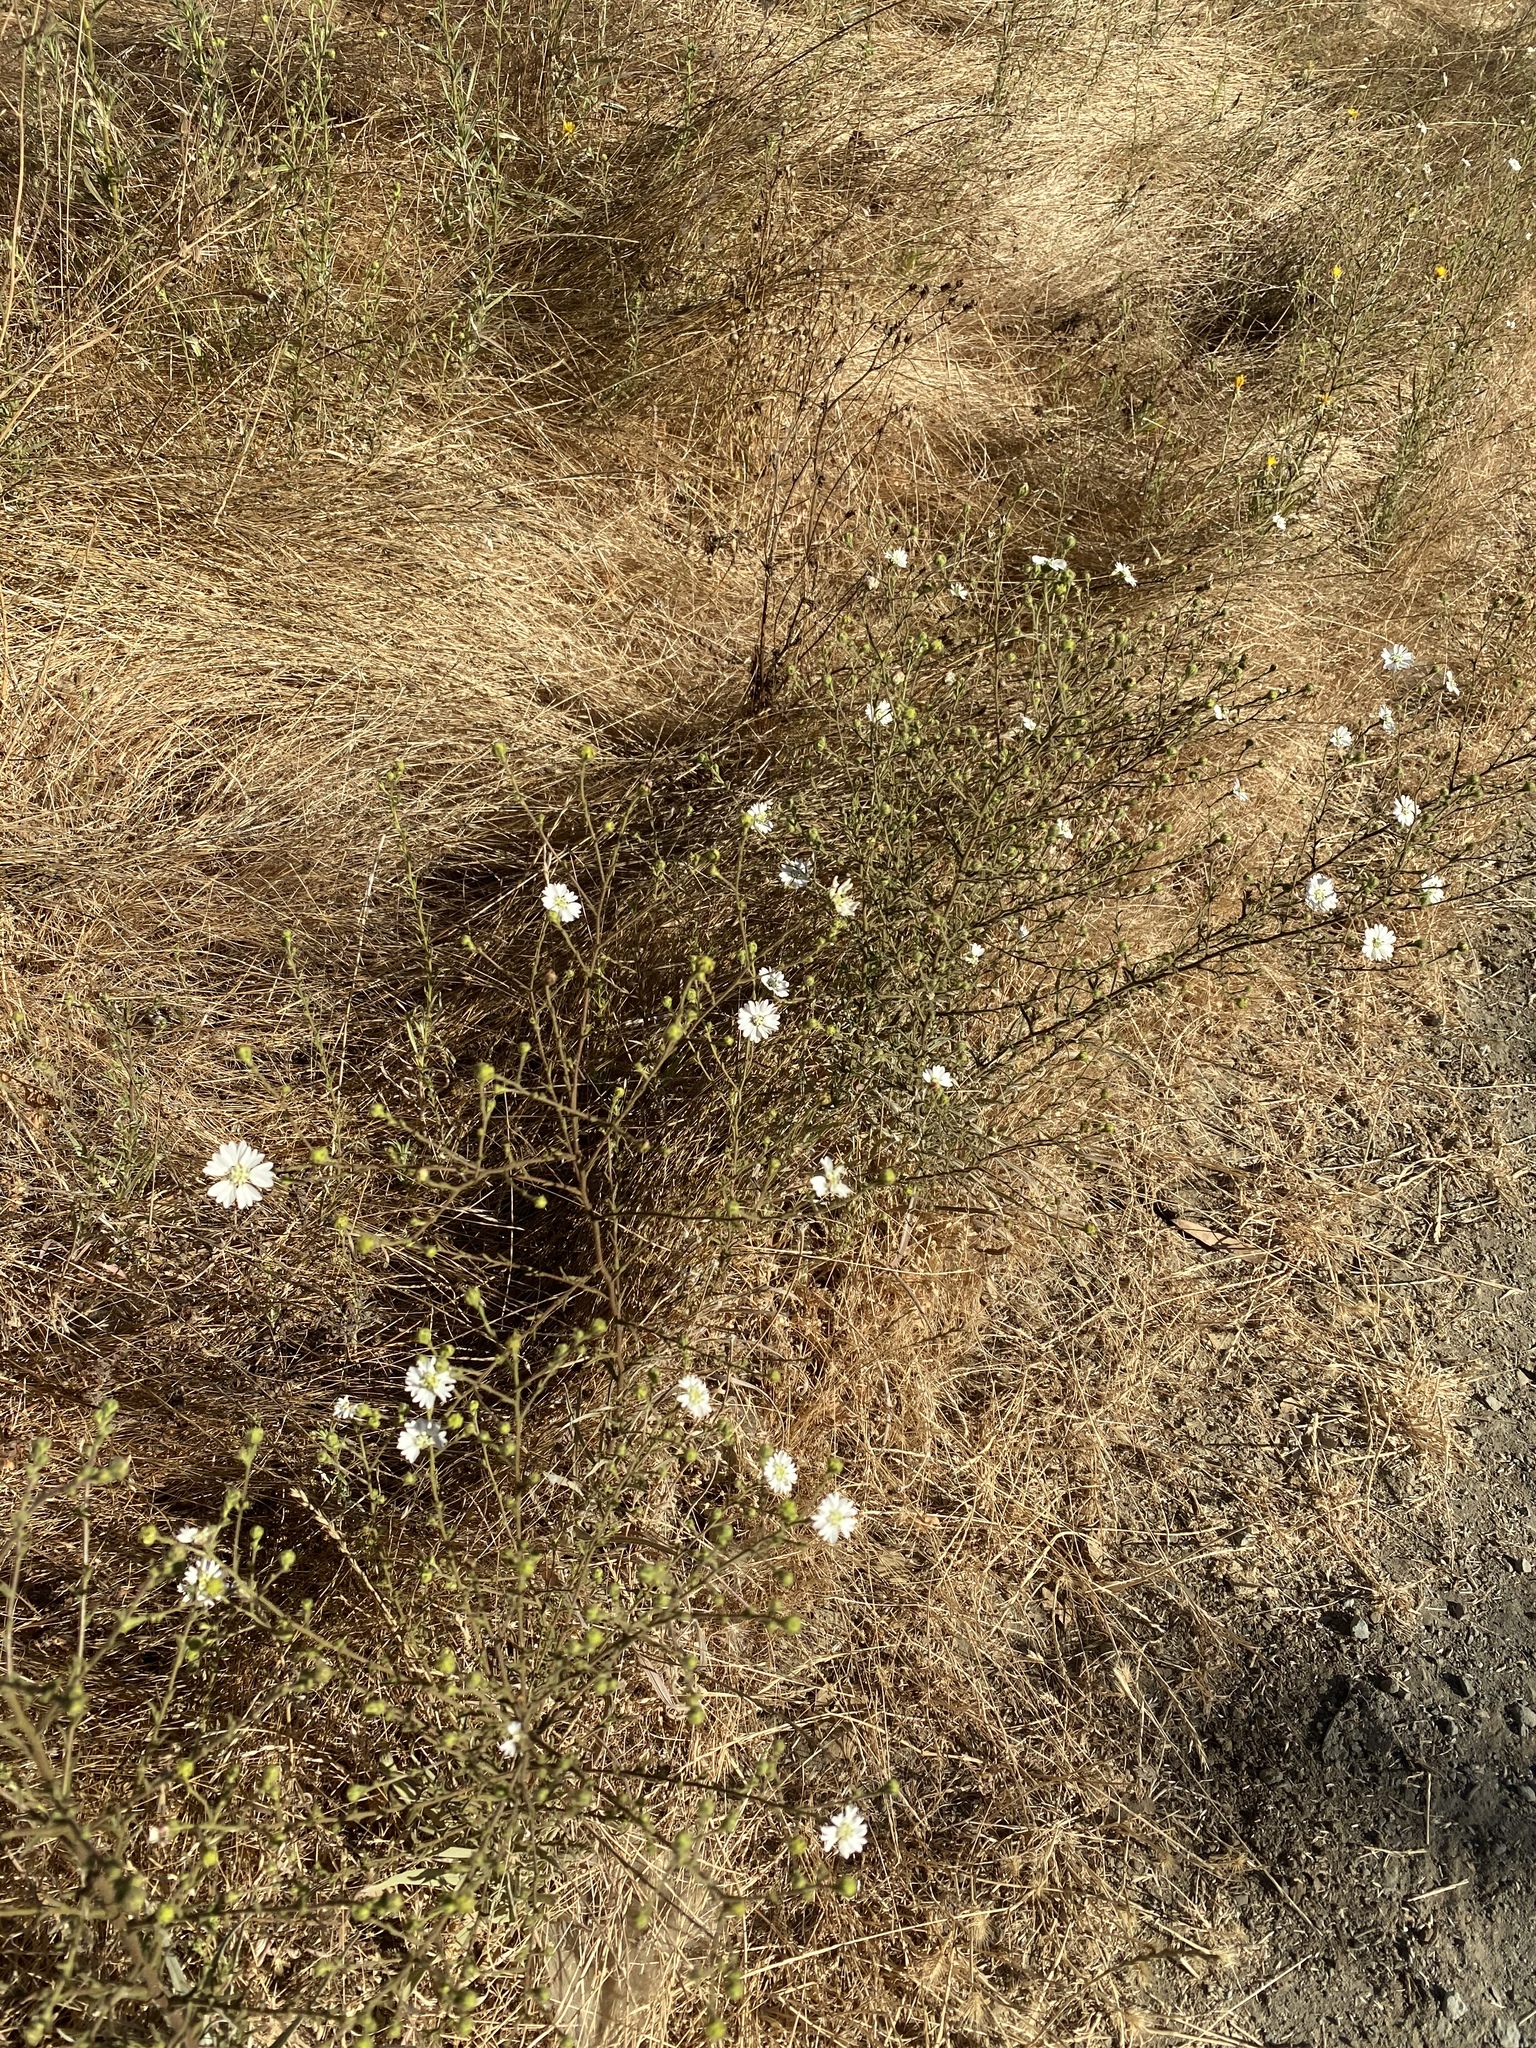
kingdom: Plantae
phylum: Tracheophyta
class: Magnoliopsida
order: Asterales
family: Asteraceae
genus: Hemizonia
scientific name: Hemizonia congesta
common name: Hayfield tarweed
